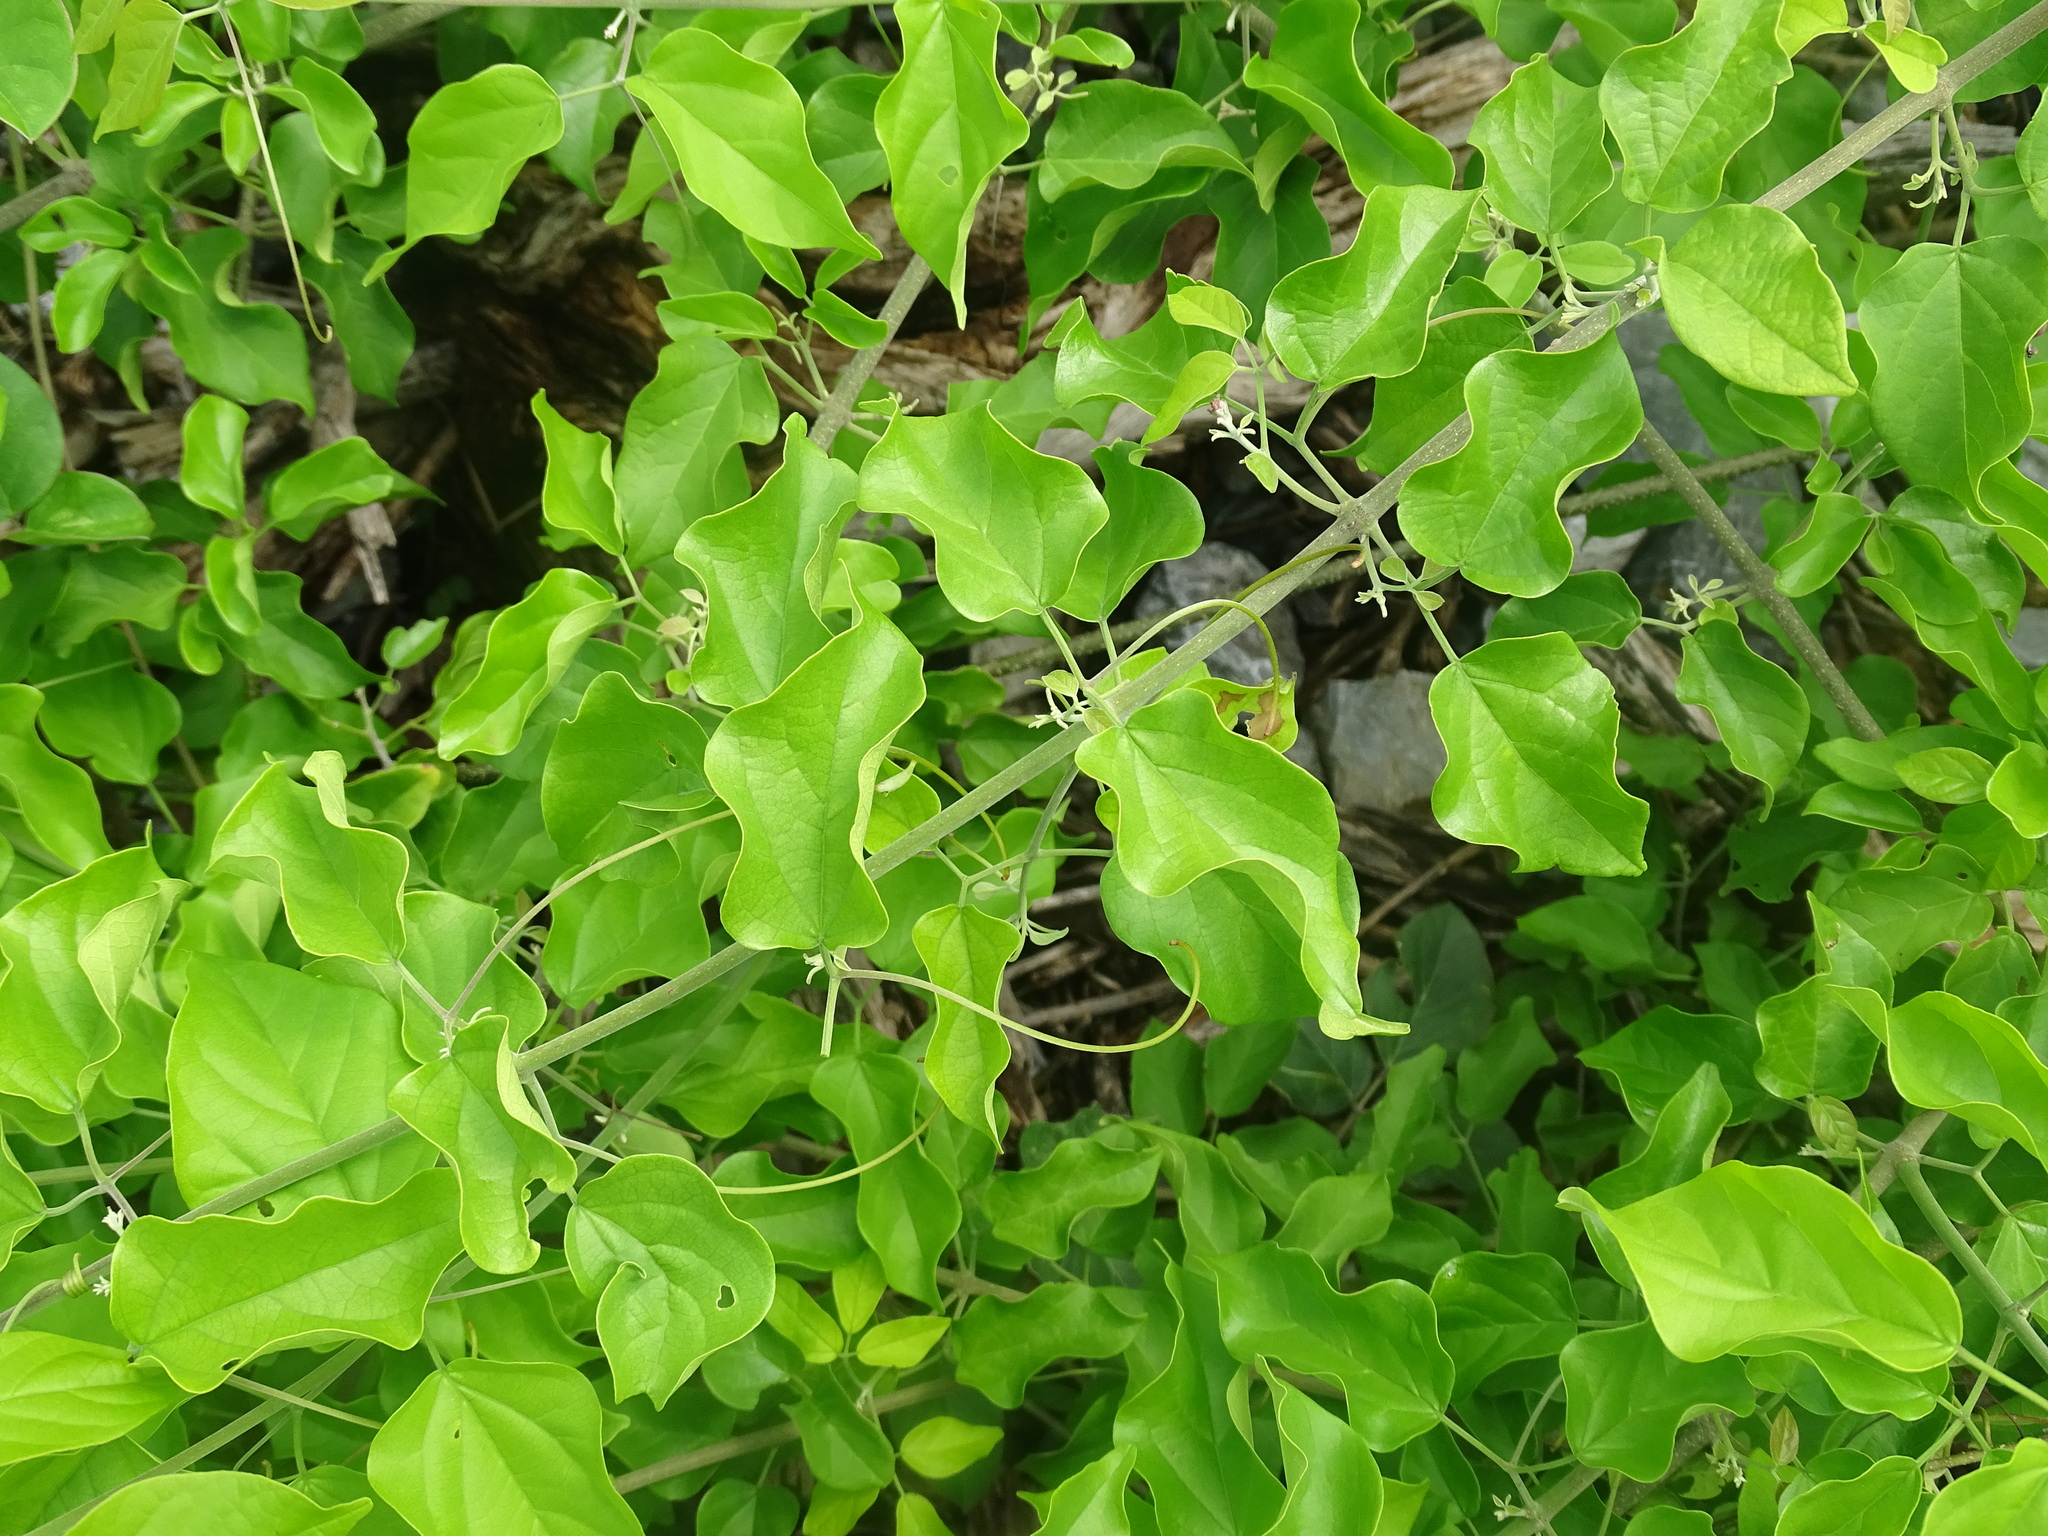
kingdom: Plantae
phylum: Tracheophyta
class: Magnoliopsida
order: Lamiales
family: Bignoniaceae
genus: Fridericia
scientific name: Fridericia pubescens
